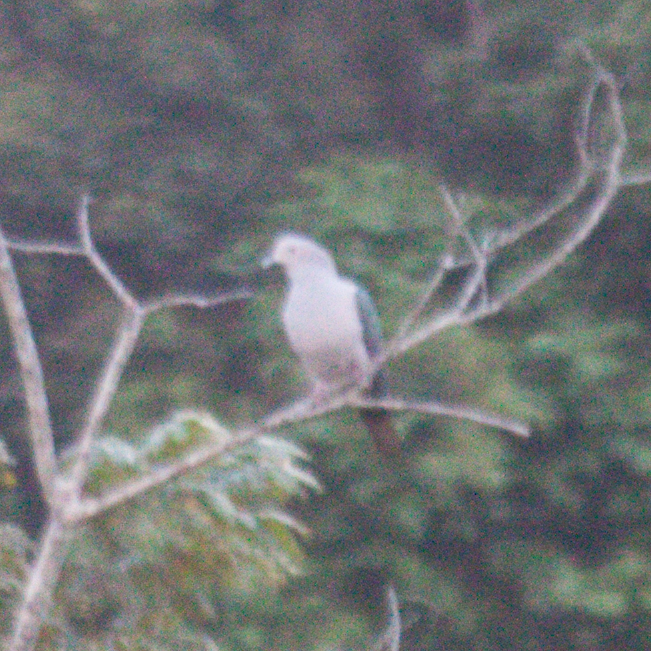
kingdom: Animalia
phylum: Chordata
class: Aves
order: Columbiformes
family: Columbidae
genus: Ducula
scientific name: Ducula aenea
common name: Green imperial pigeon
